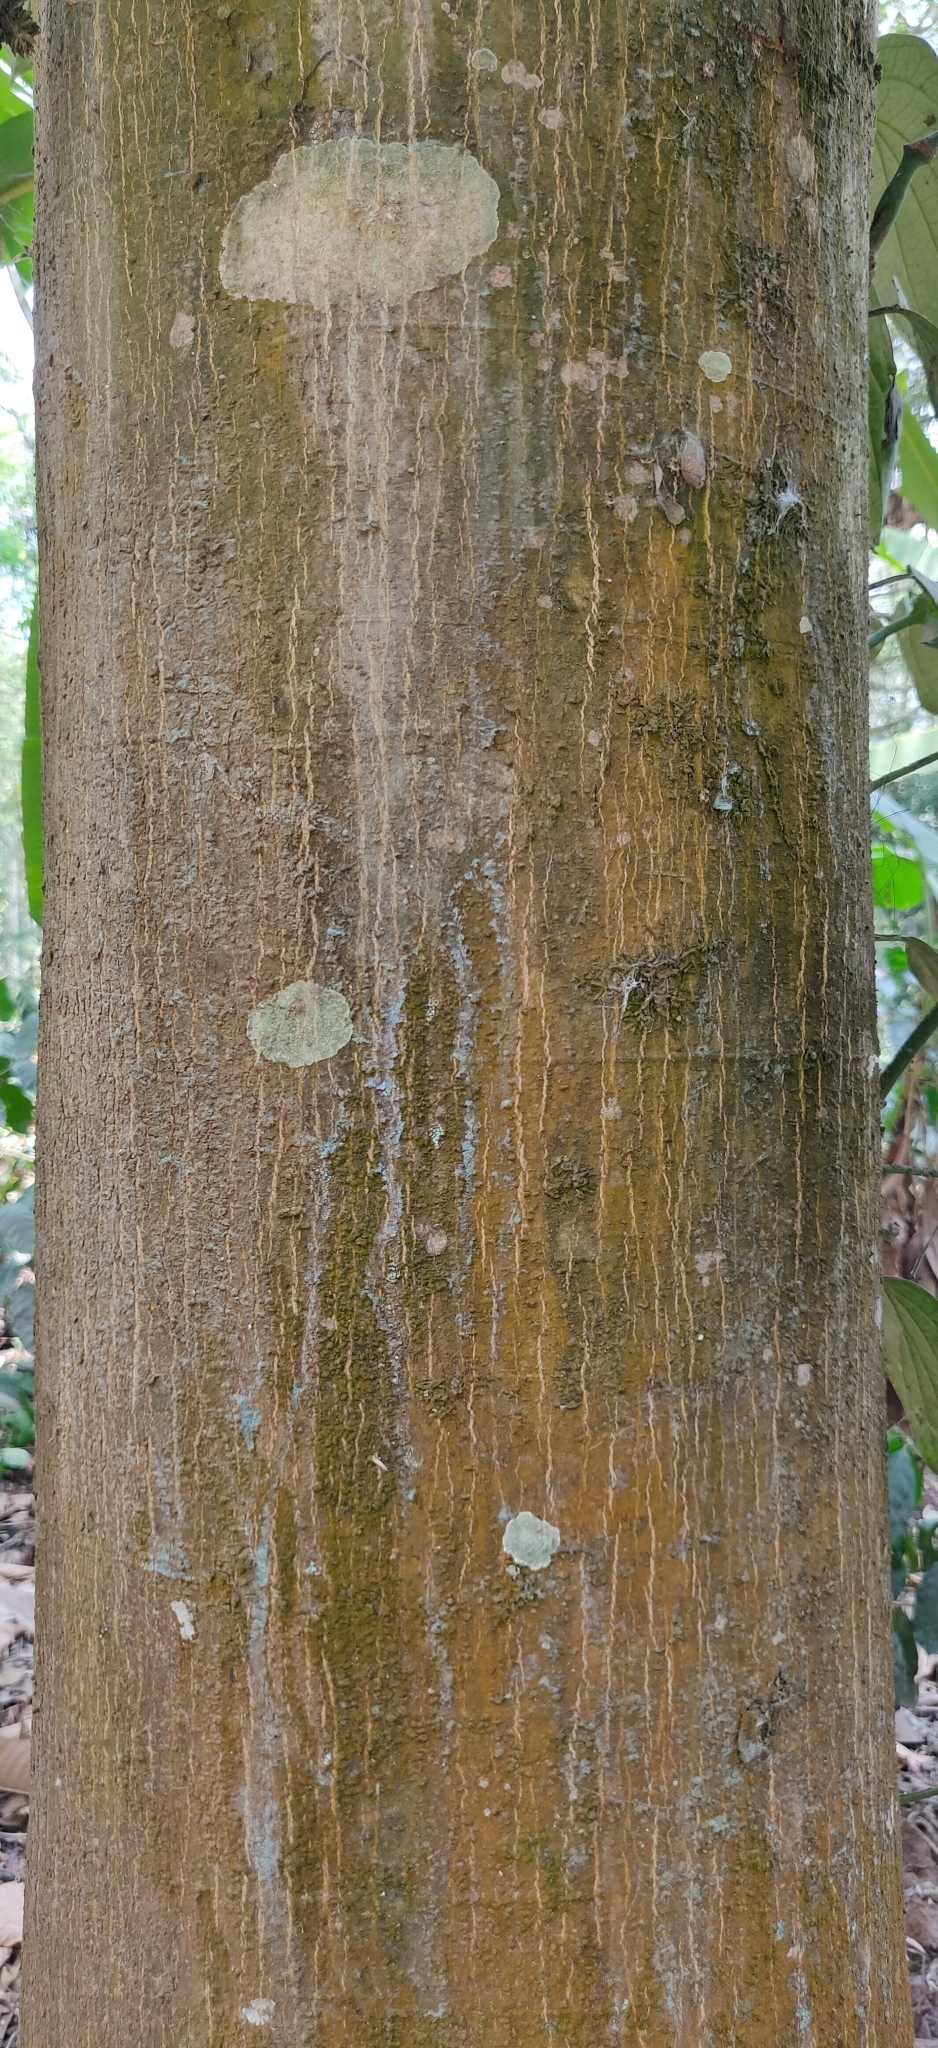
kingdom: Plantae
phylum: Tracheophyta
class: Magnoliopsida
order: Malvales
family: Dipterocarpaceae
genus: Vateria
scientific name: Vateria indica
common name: White dammar
